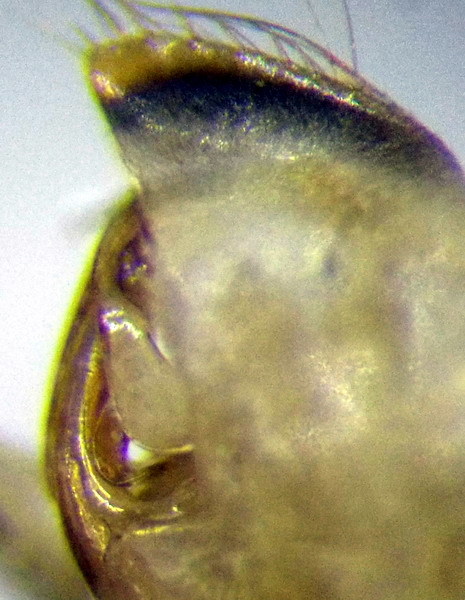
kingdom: Animalia
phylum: Arthropoda
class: Insecta
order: Hemiptera
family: Corixidae
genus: Sigara
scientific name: Sigara striata
